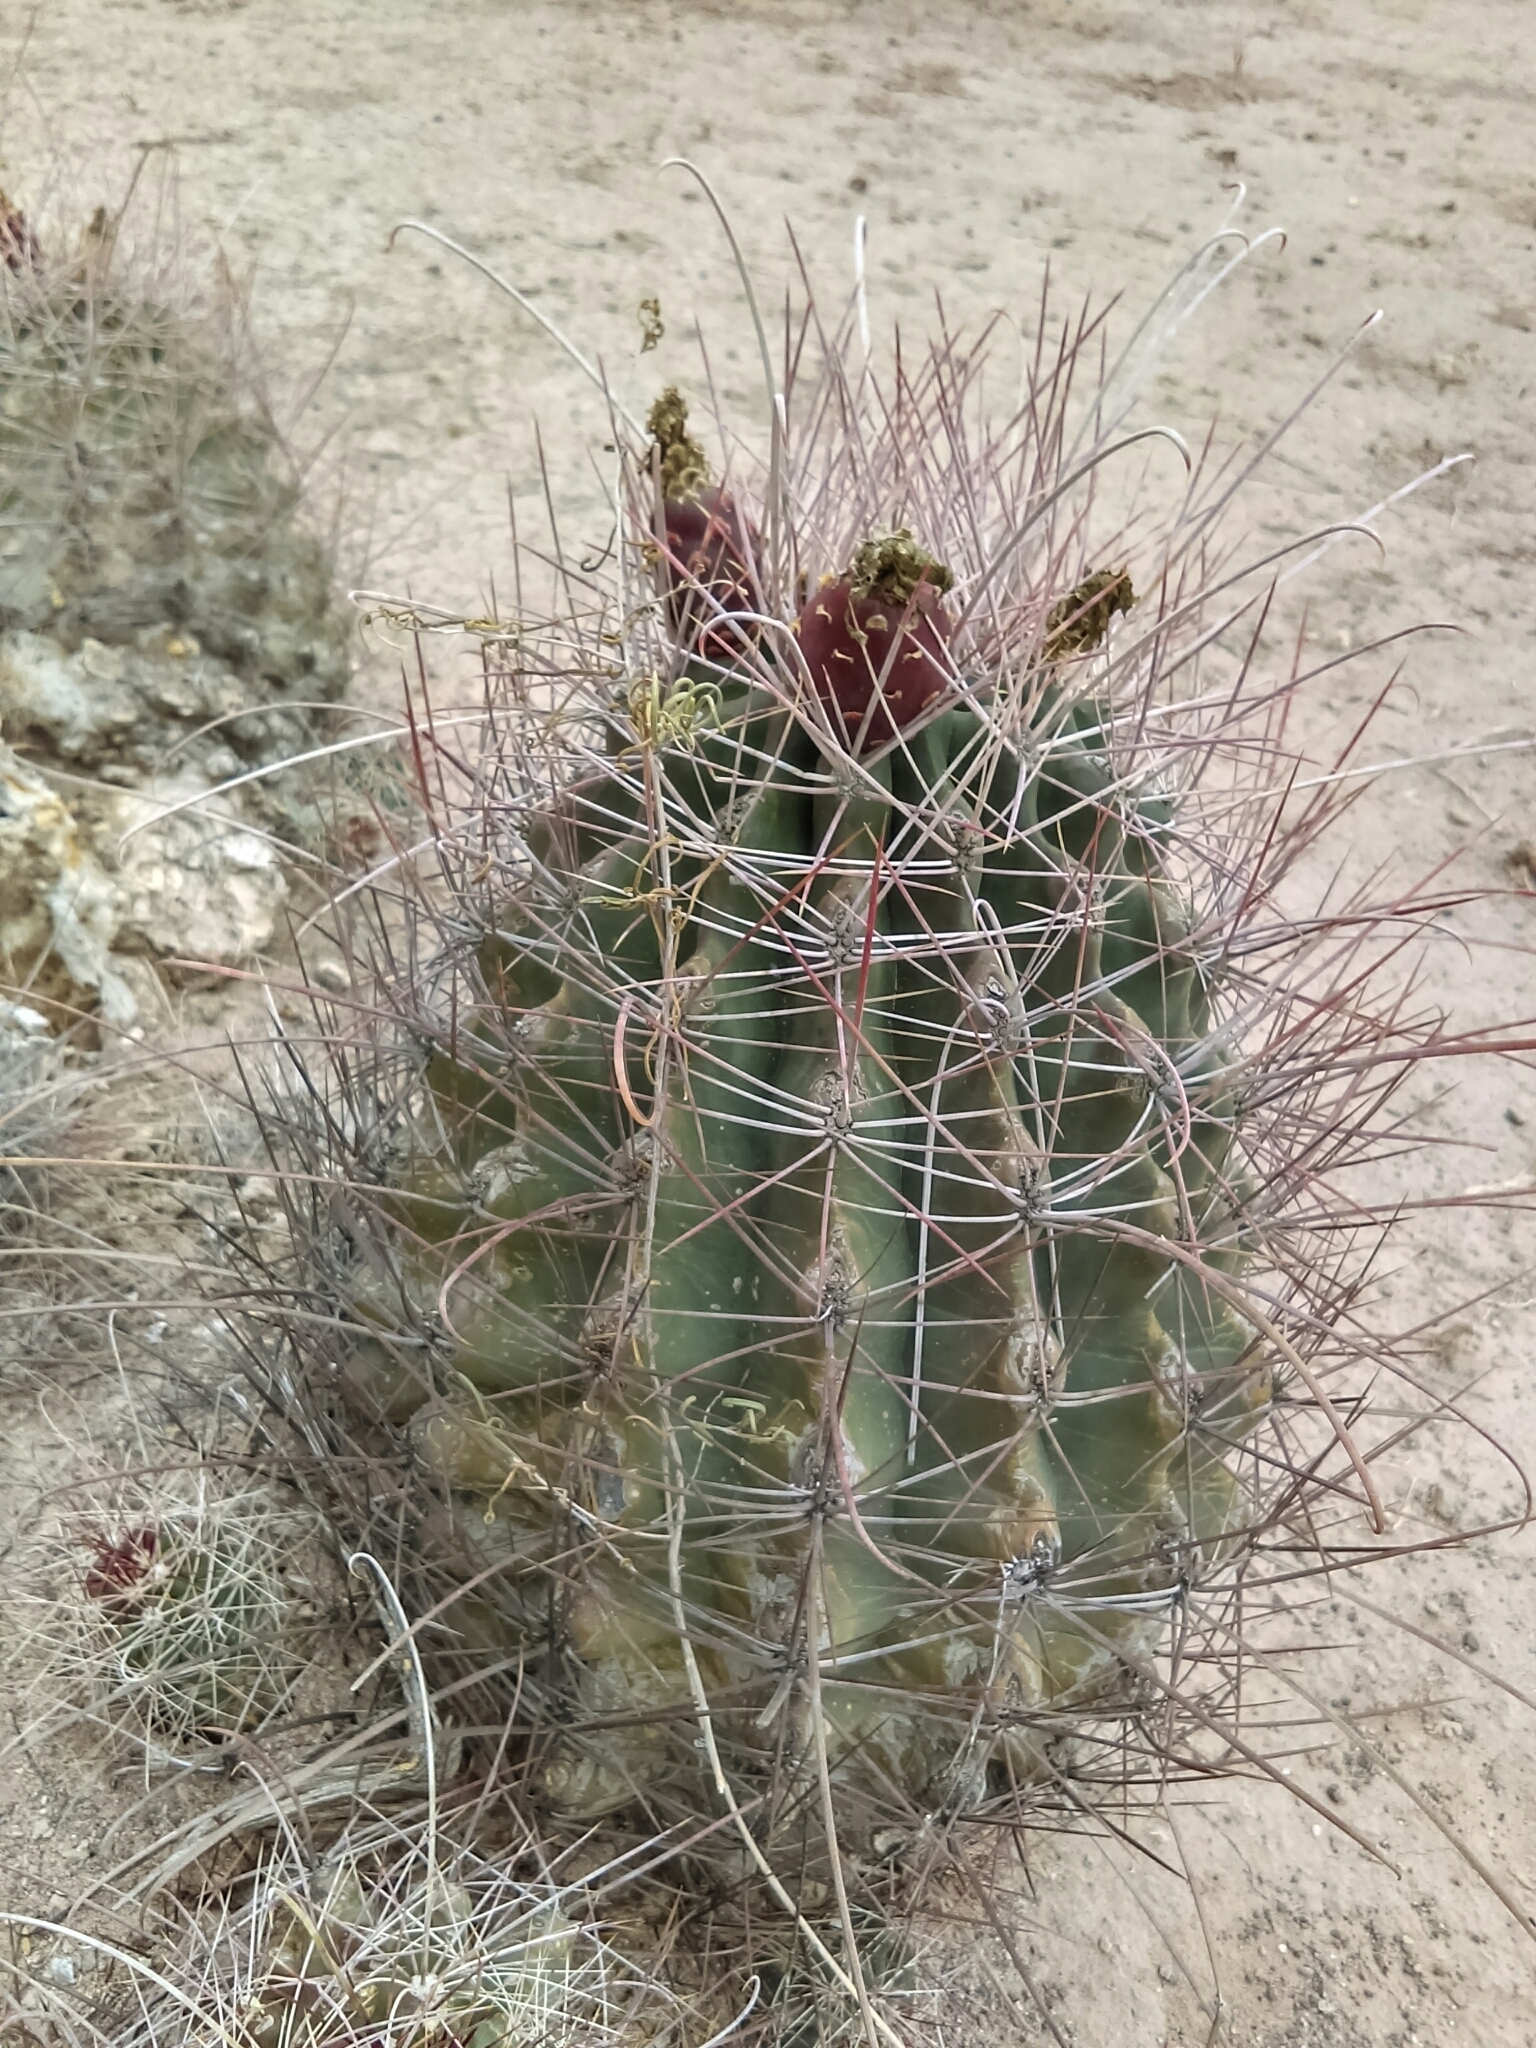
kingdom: Plantae
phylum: Tracheophyta
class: Magnoliopsida
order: Caryophyllales
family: Cactaceae
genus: Bisnaga
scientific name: Bisnaga hamatacantha
